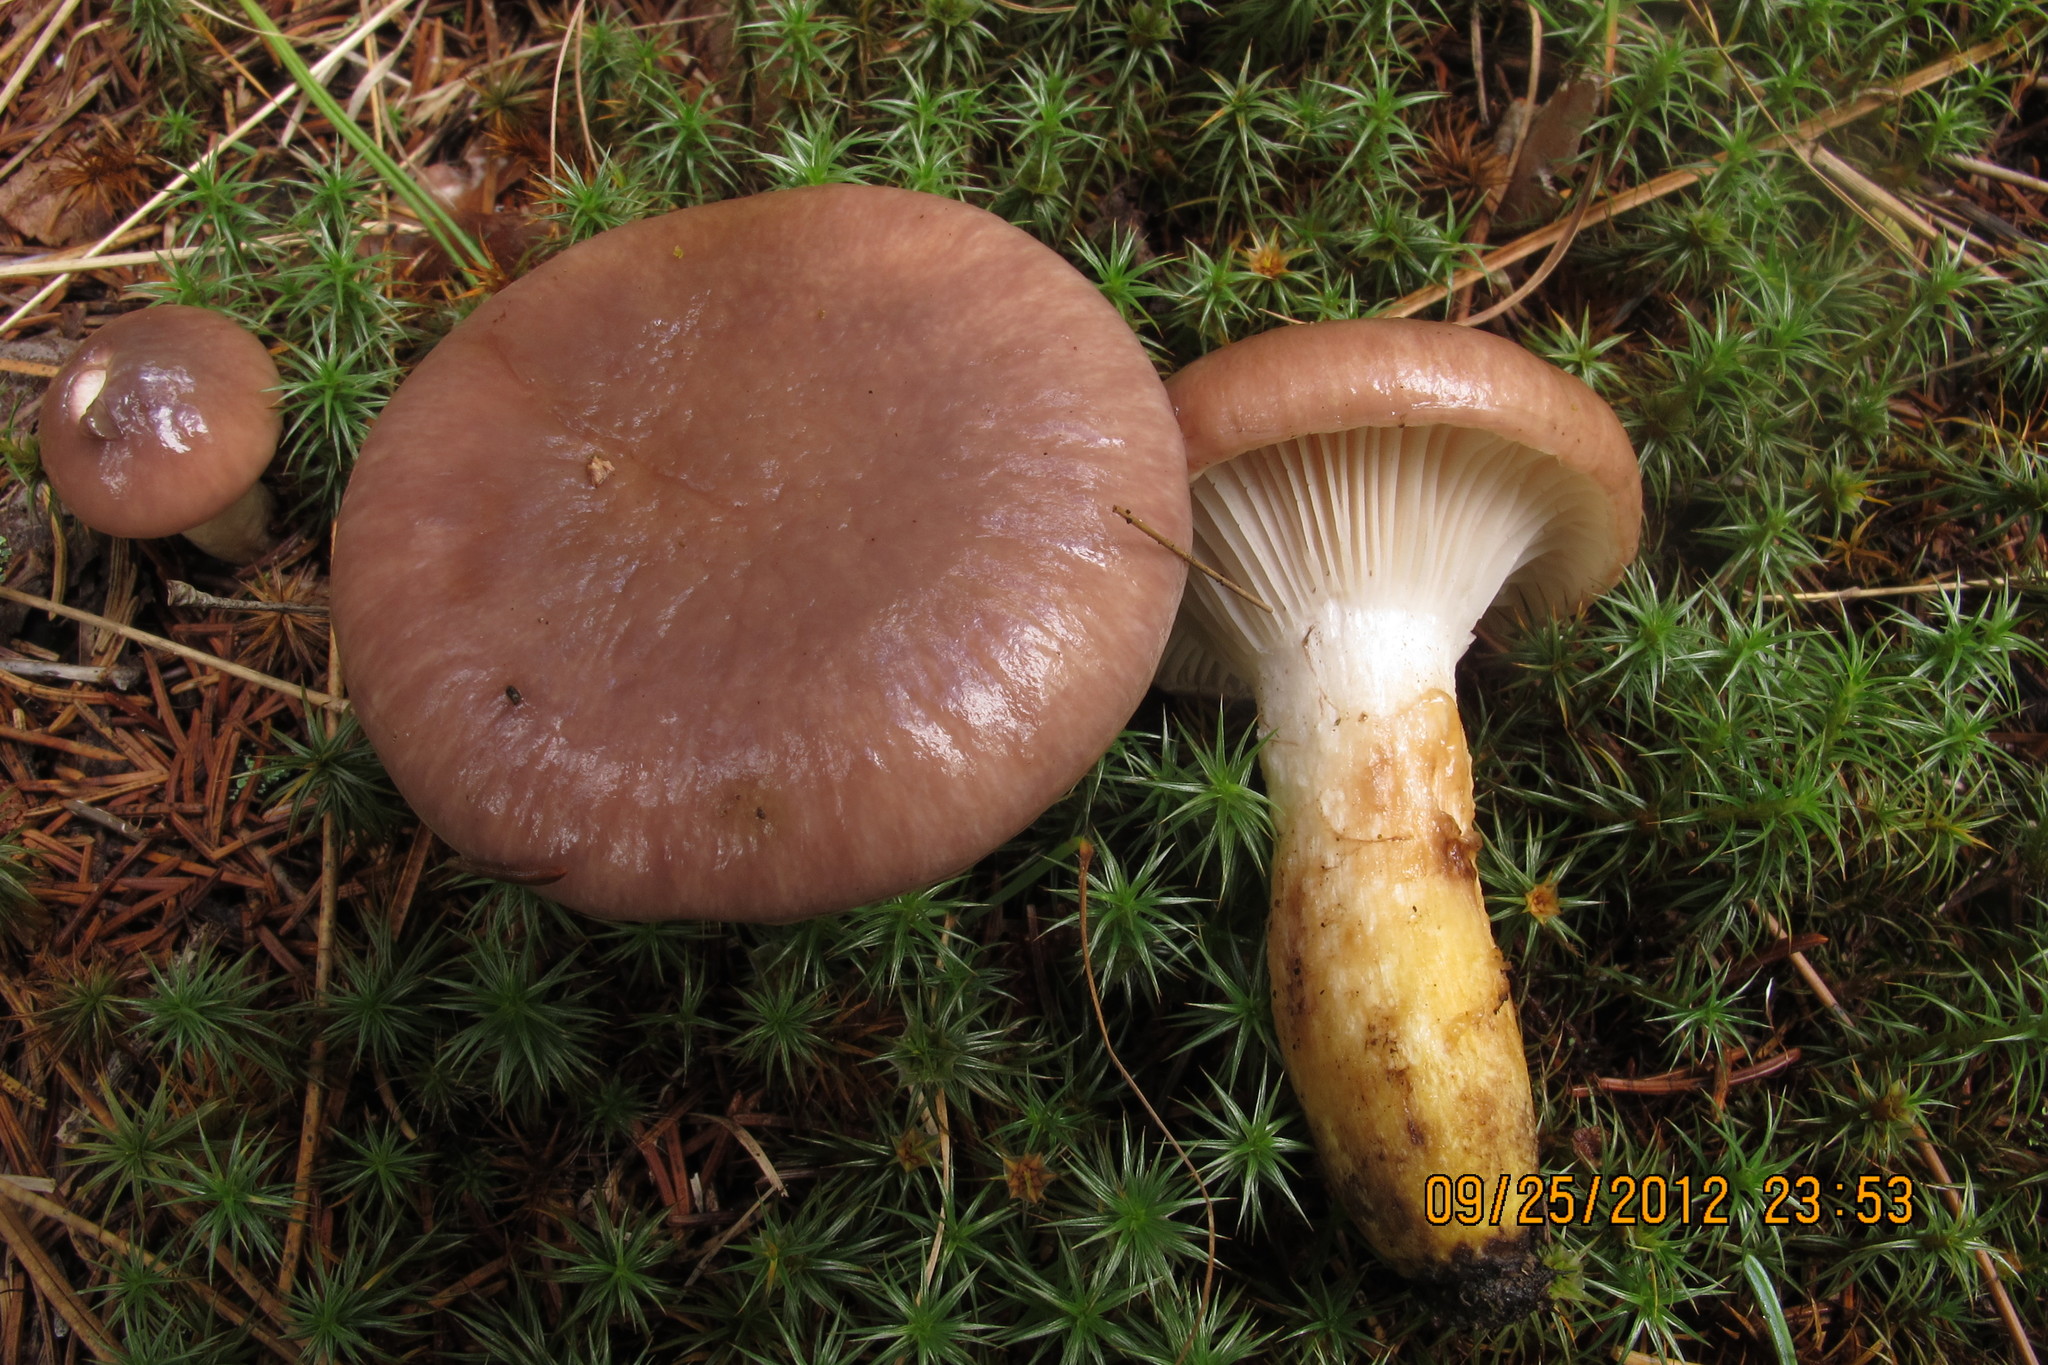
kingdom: Fungi
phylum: Basidiomycota
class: Agaricomycetes
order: Boletales
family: Gomphidiaceae
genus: Gomphidius
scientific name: Gomphidius glutinosus
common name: Slimy spike
